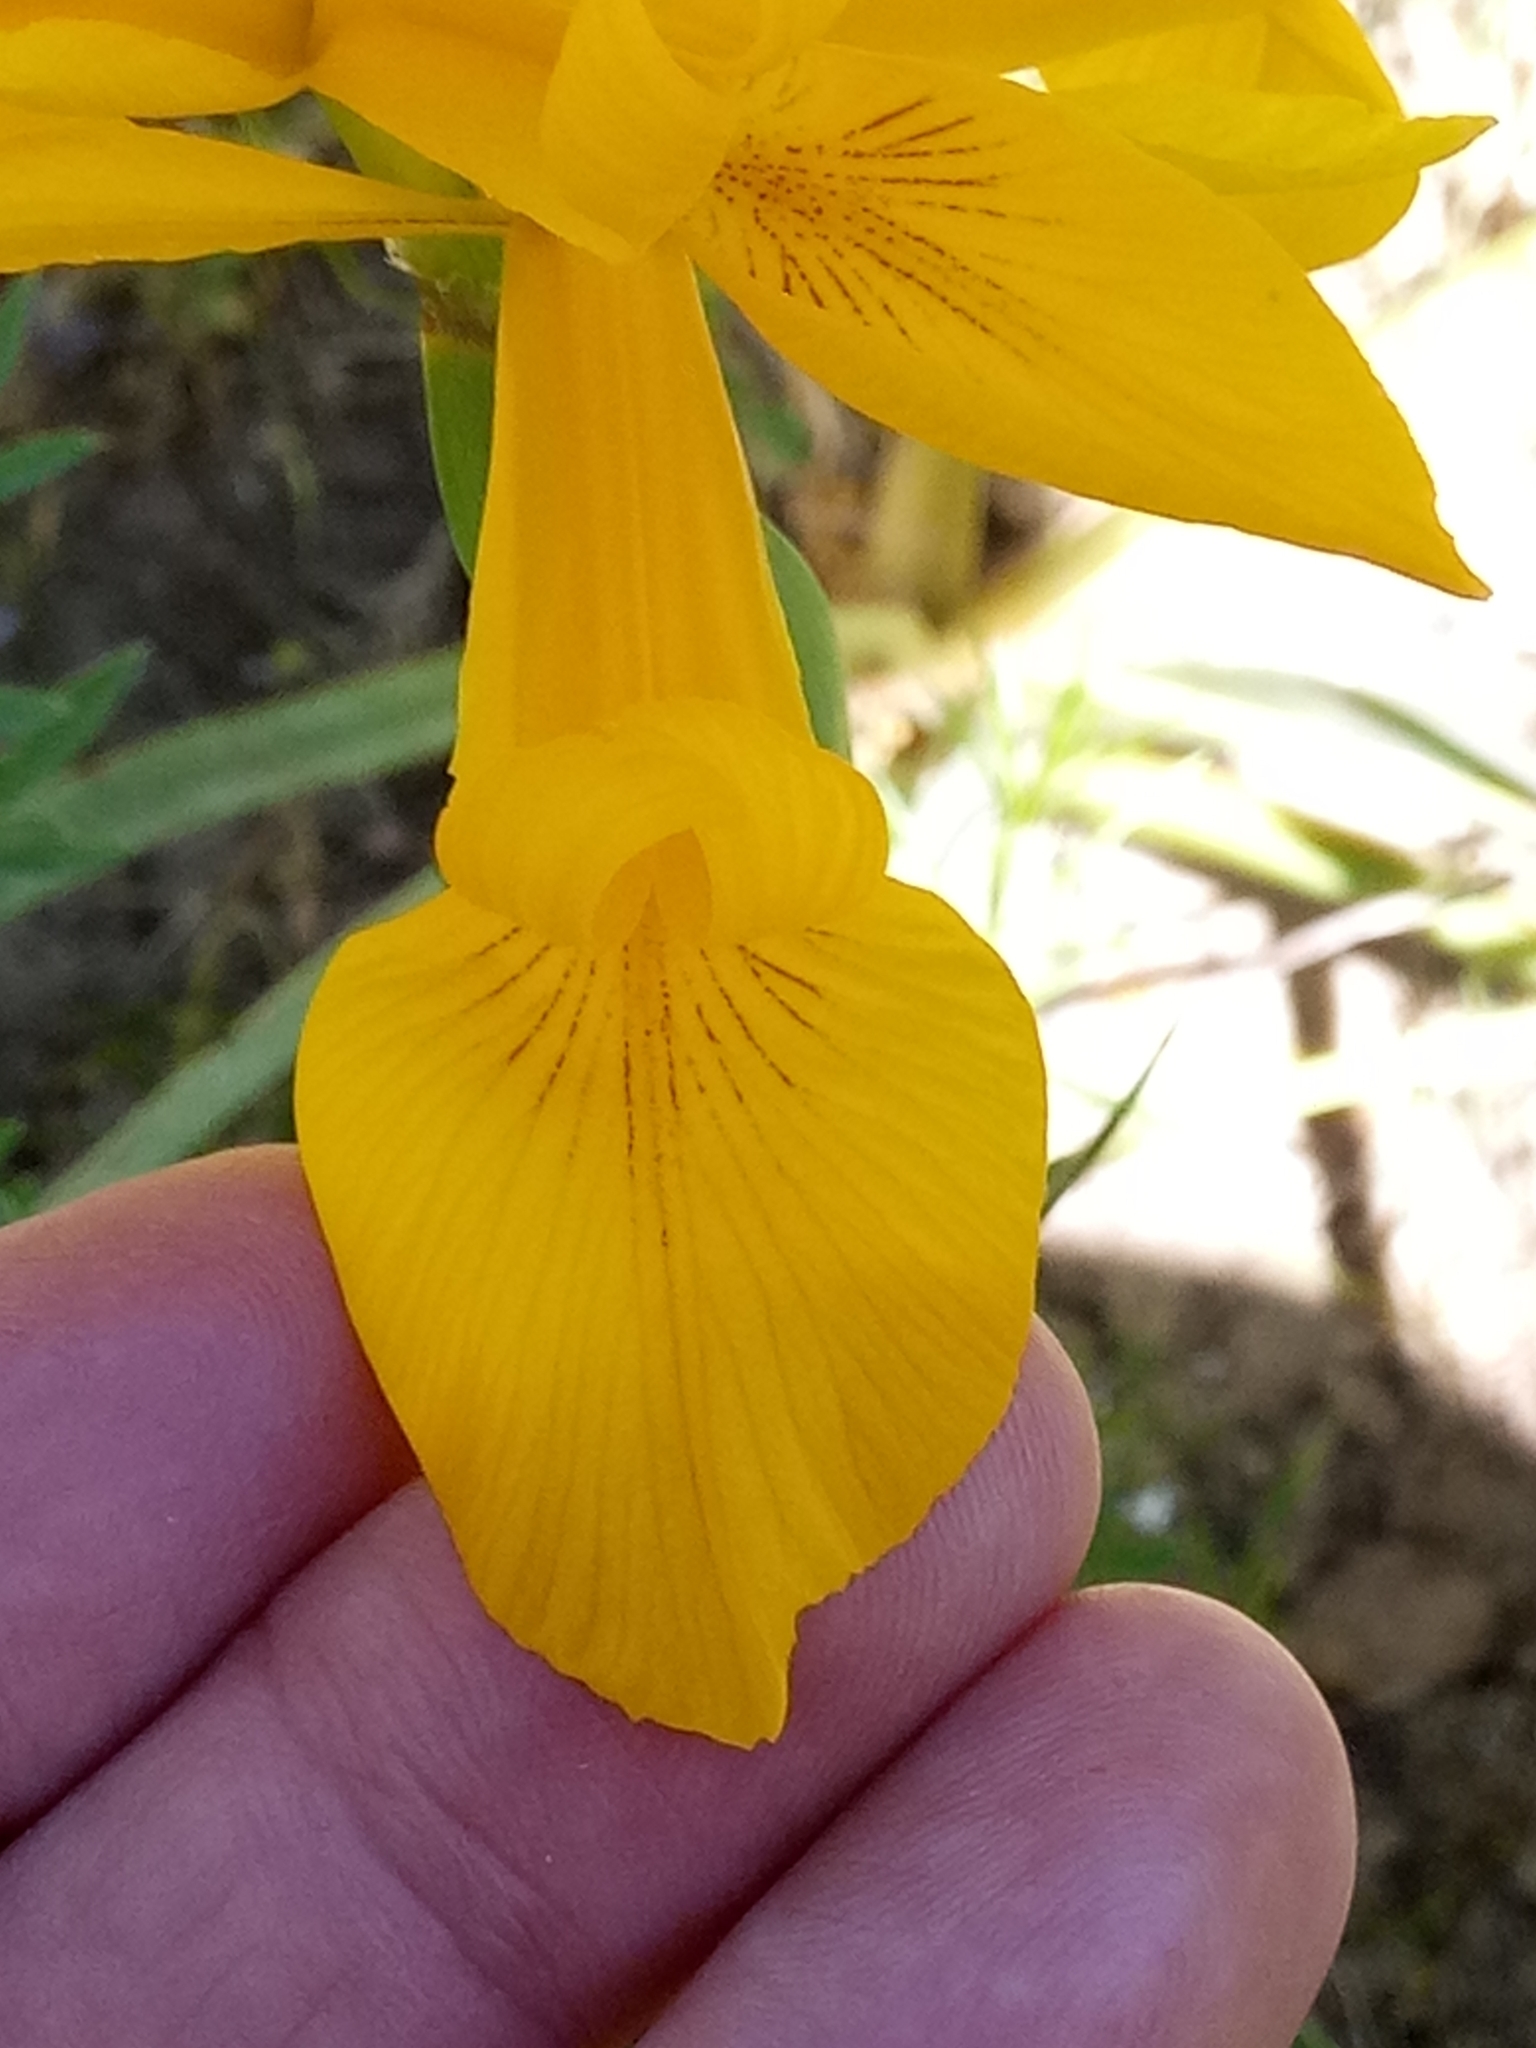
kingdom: Plantae
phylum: Tracheophyta
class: Liliopsida
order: Asparagales
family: Iridaceae
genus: Iris
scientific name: Iris juncea
